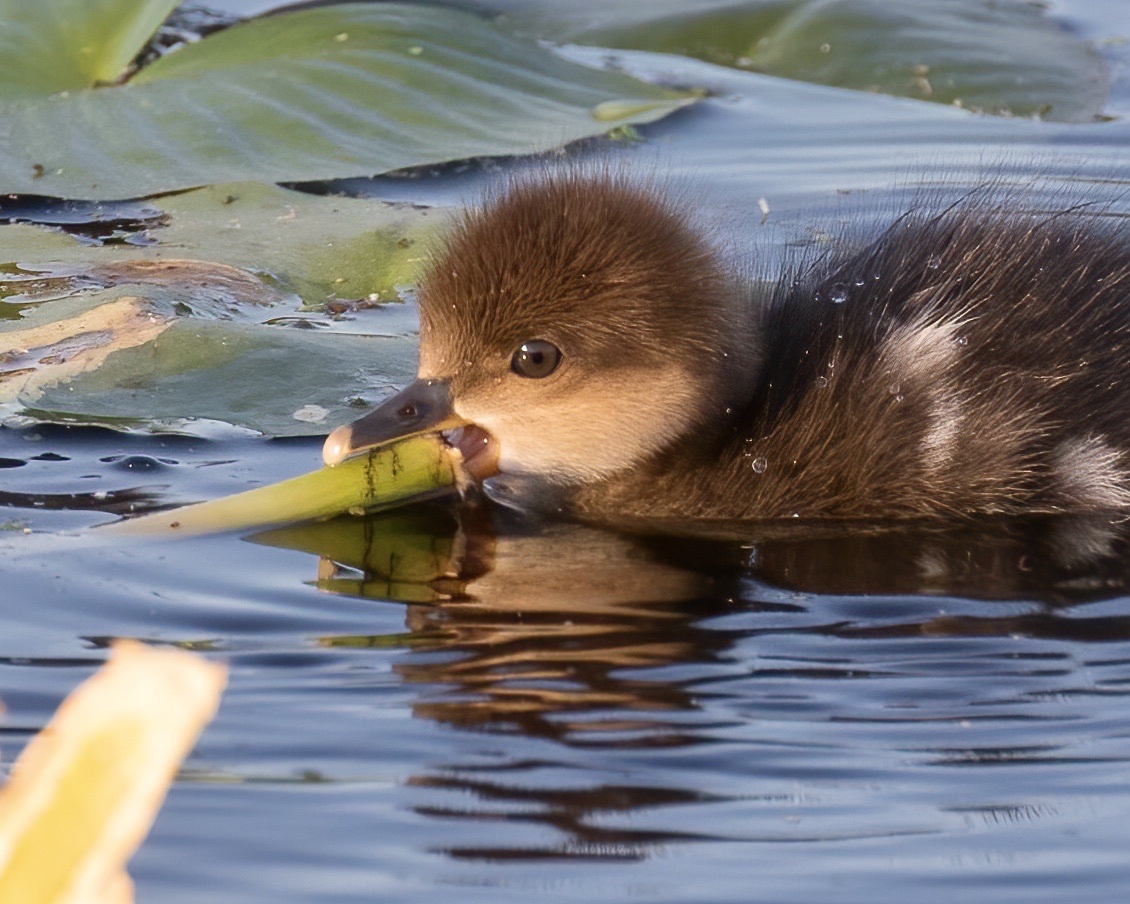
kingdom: Animalia
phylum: Chordata
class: Aves
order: Anseriformes
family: Anatidae
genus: Lophodytes
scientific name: Lophodytes cucullatus
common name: Hooded merganser
